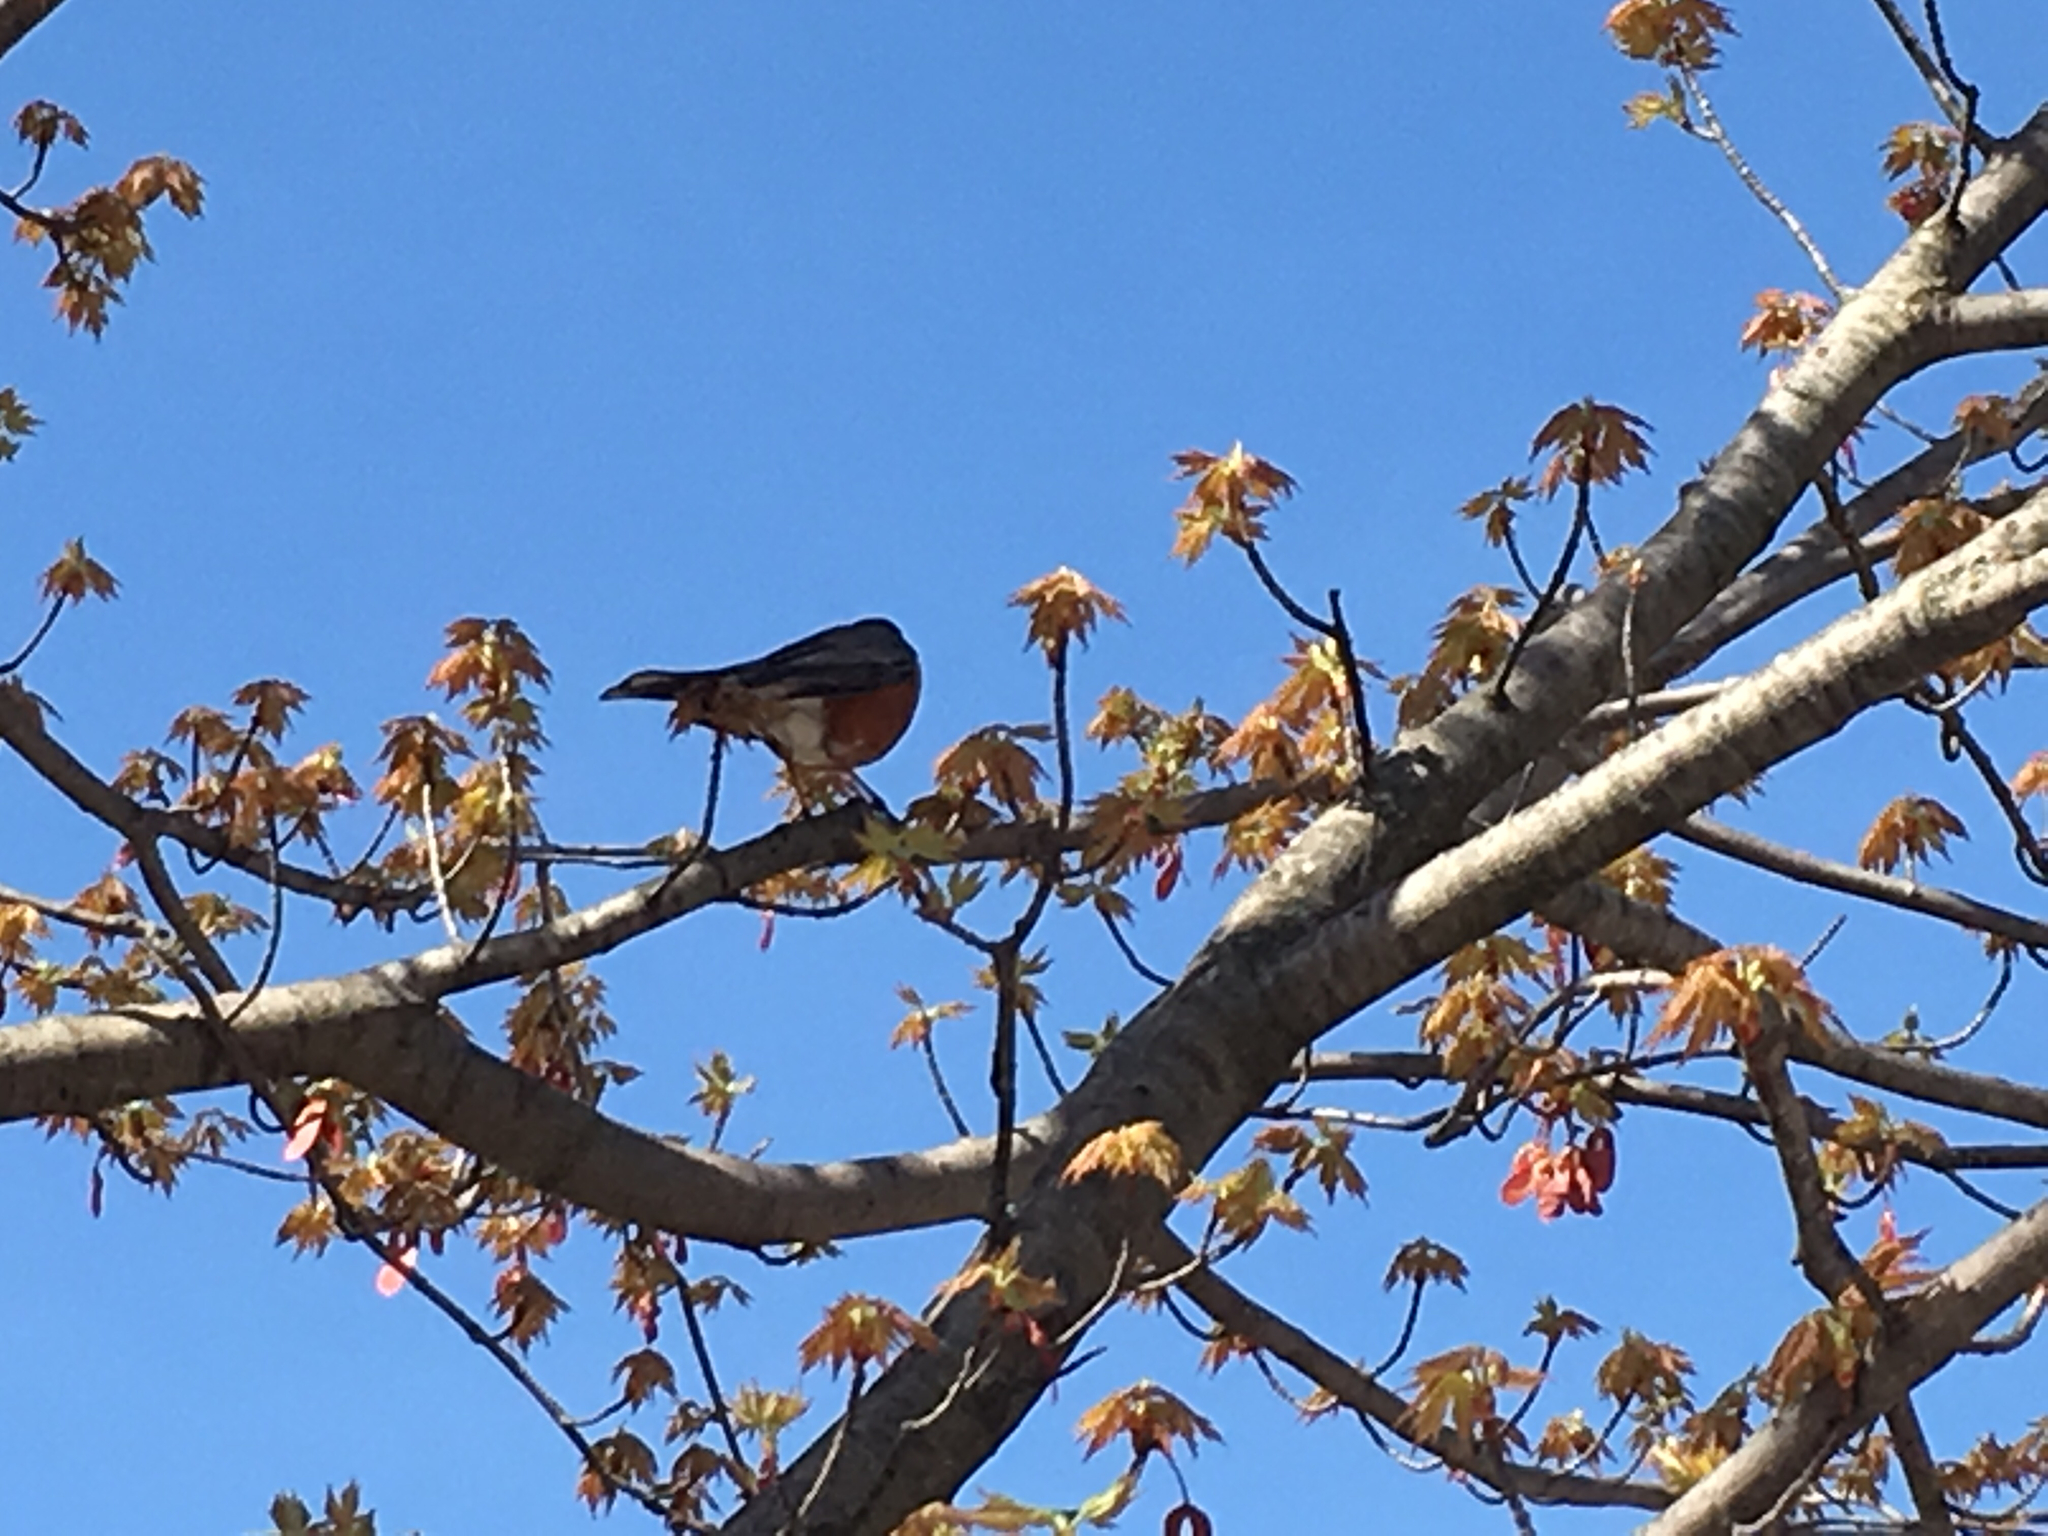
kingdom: Animalia
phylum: Chordata
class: Aves
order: Passeriformes
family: Turdidae
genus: Turdus
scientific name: Turdus migratorius
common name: American robin
